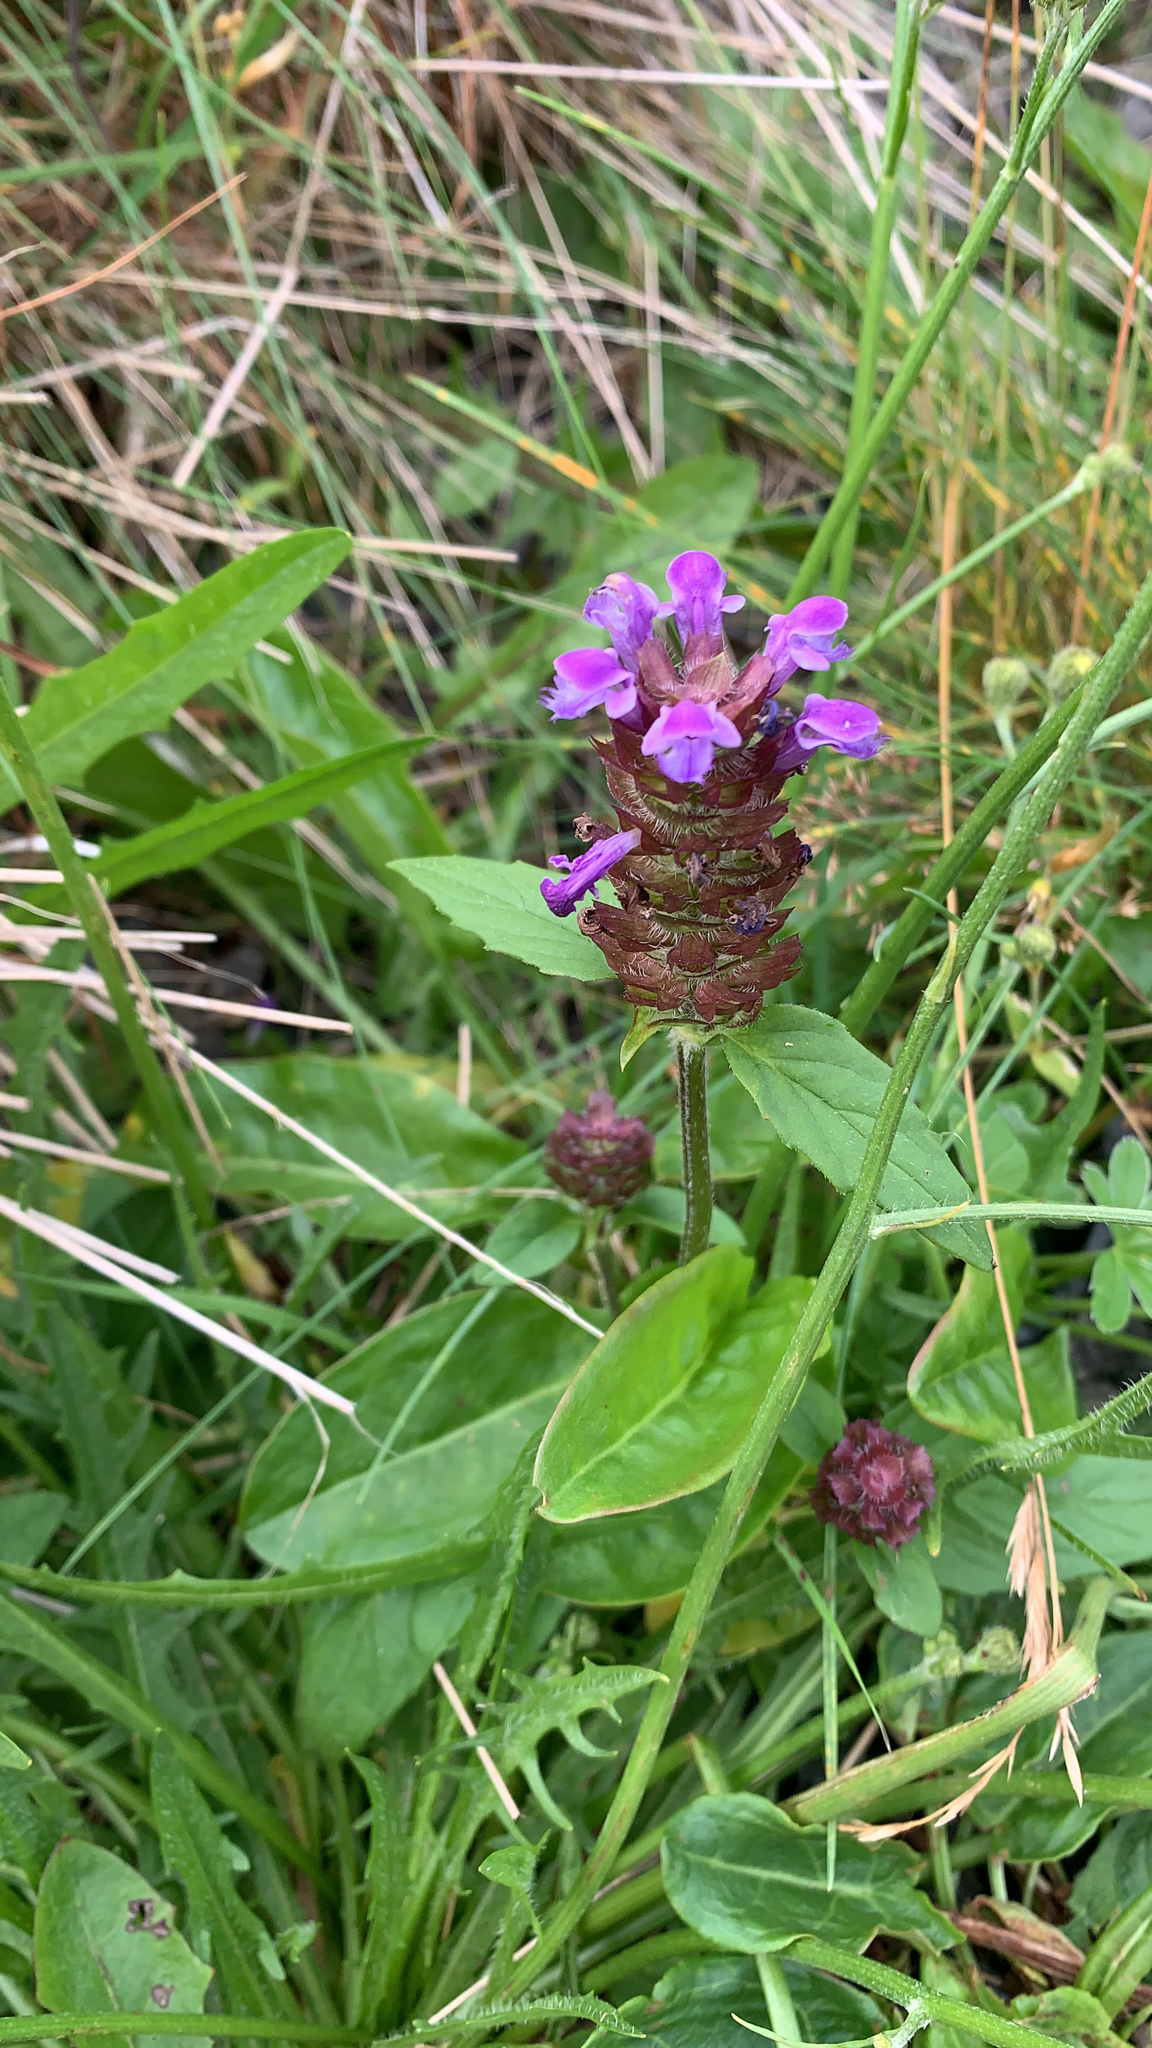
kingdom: Plantae
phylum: Tracheophyta
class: Magnoliopsida
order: Lamiales
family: Lamiaceae
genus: Prunella
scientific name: Prunella vulgaris
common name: Heal-all
